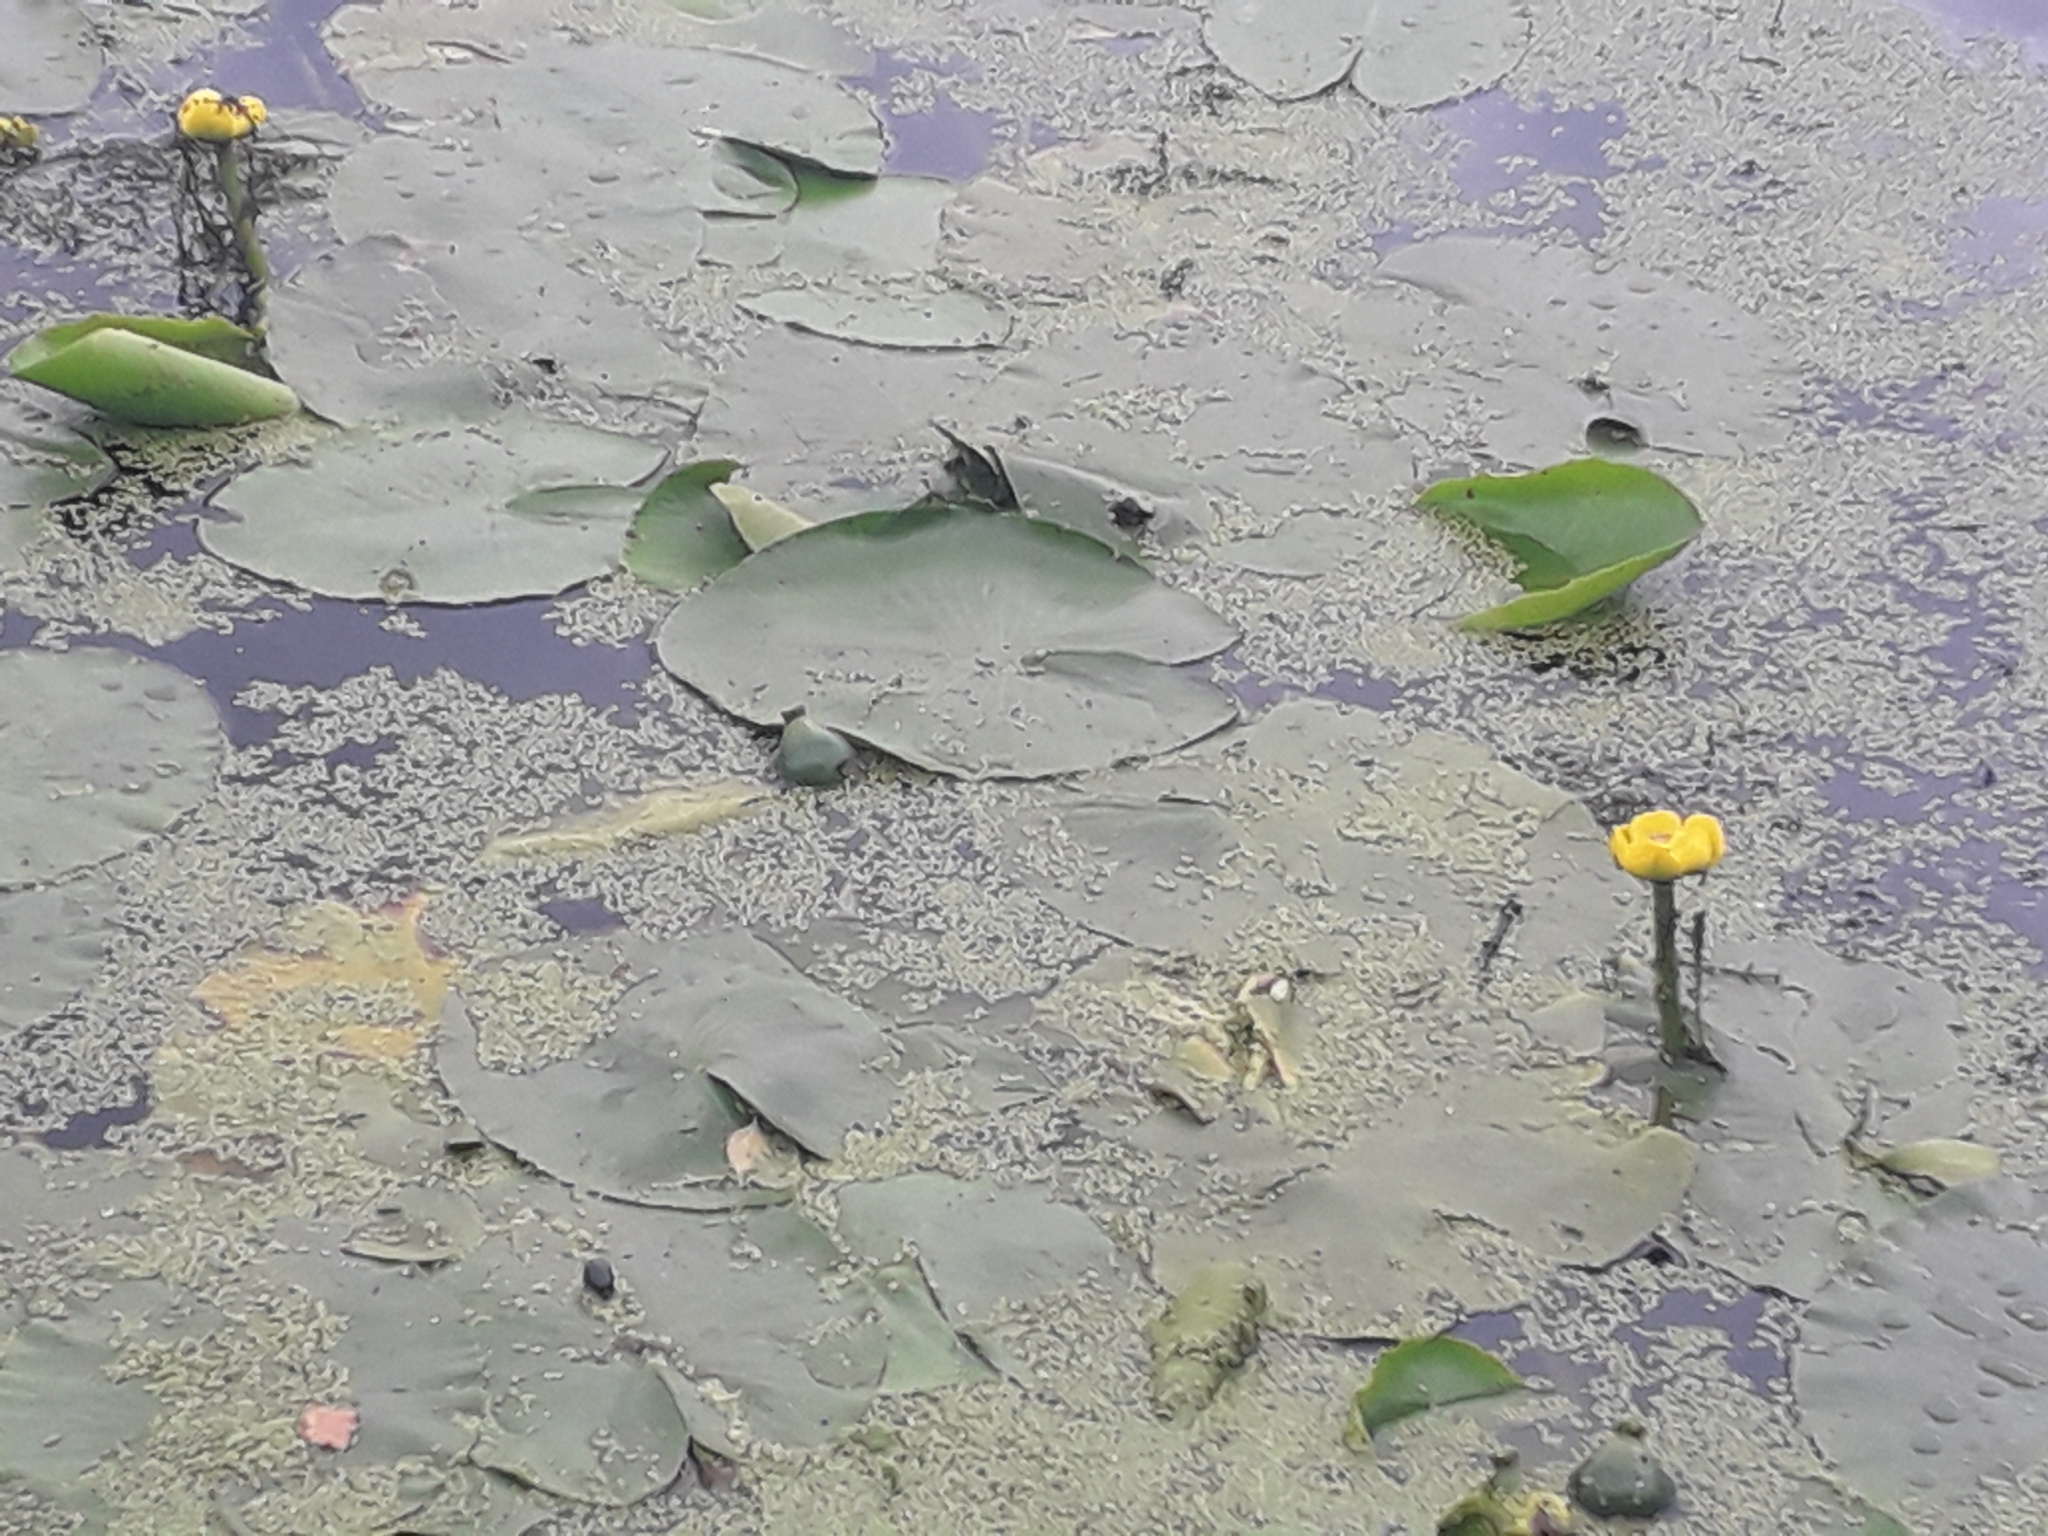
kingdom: Plantae
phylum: Tracheophyta
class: Magnoliopsida
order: Nymphaeales
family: Nymphaeaceae
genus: Nuphar
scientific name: Nuphar lutea
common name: Yellow water-lily
